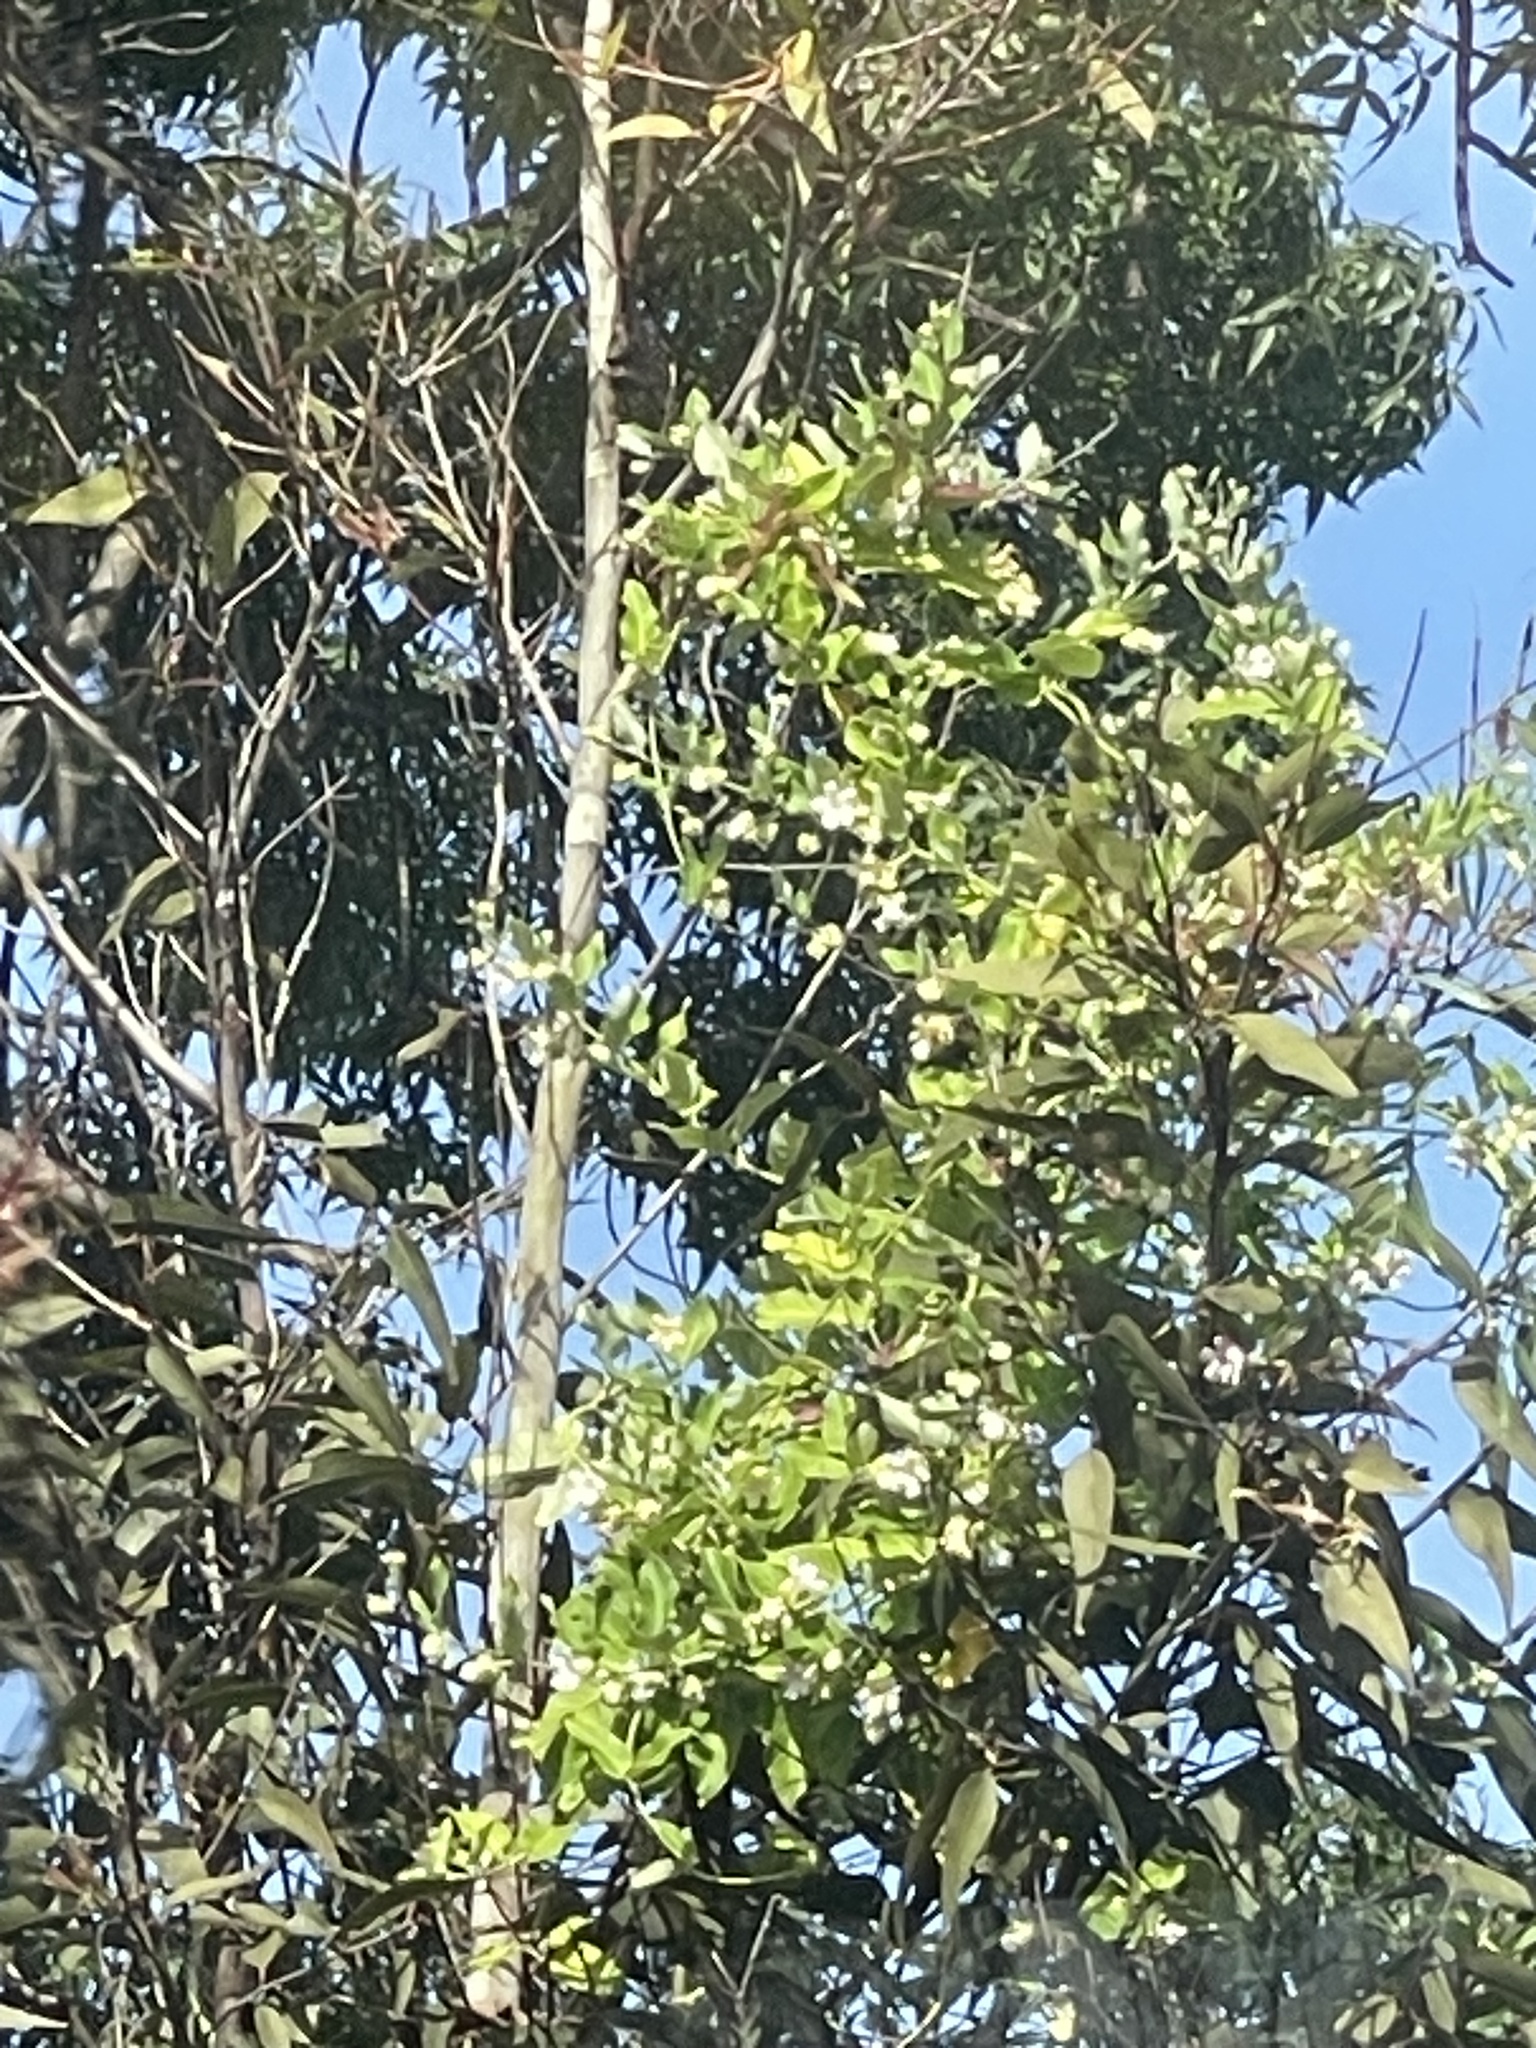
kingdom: Plantae
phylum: Tracheophyta
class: Magnoliopsida
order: Gentianales
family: Apocynaceae
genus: Araujia
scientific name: Araujia sericifera
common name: White bladderflower
